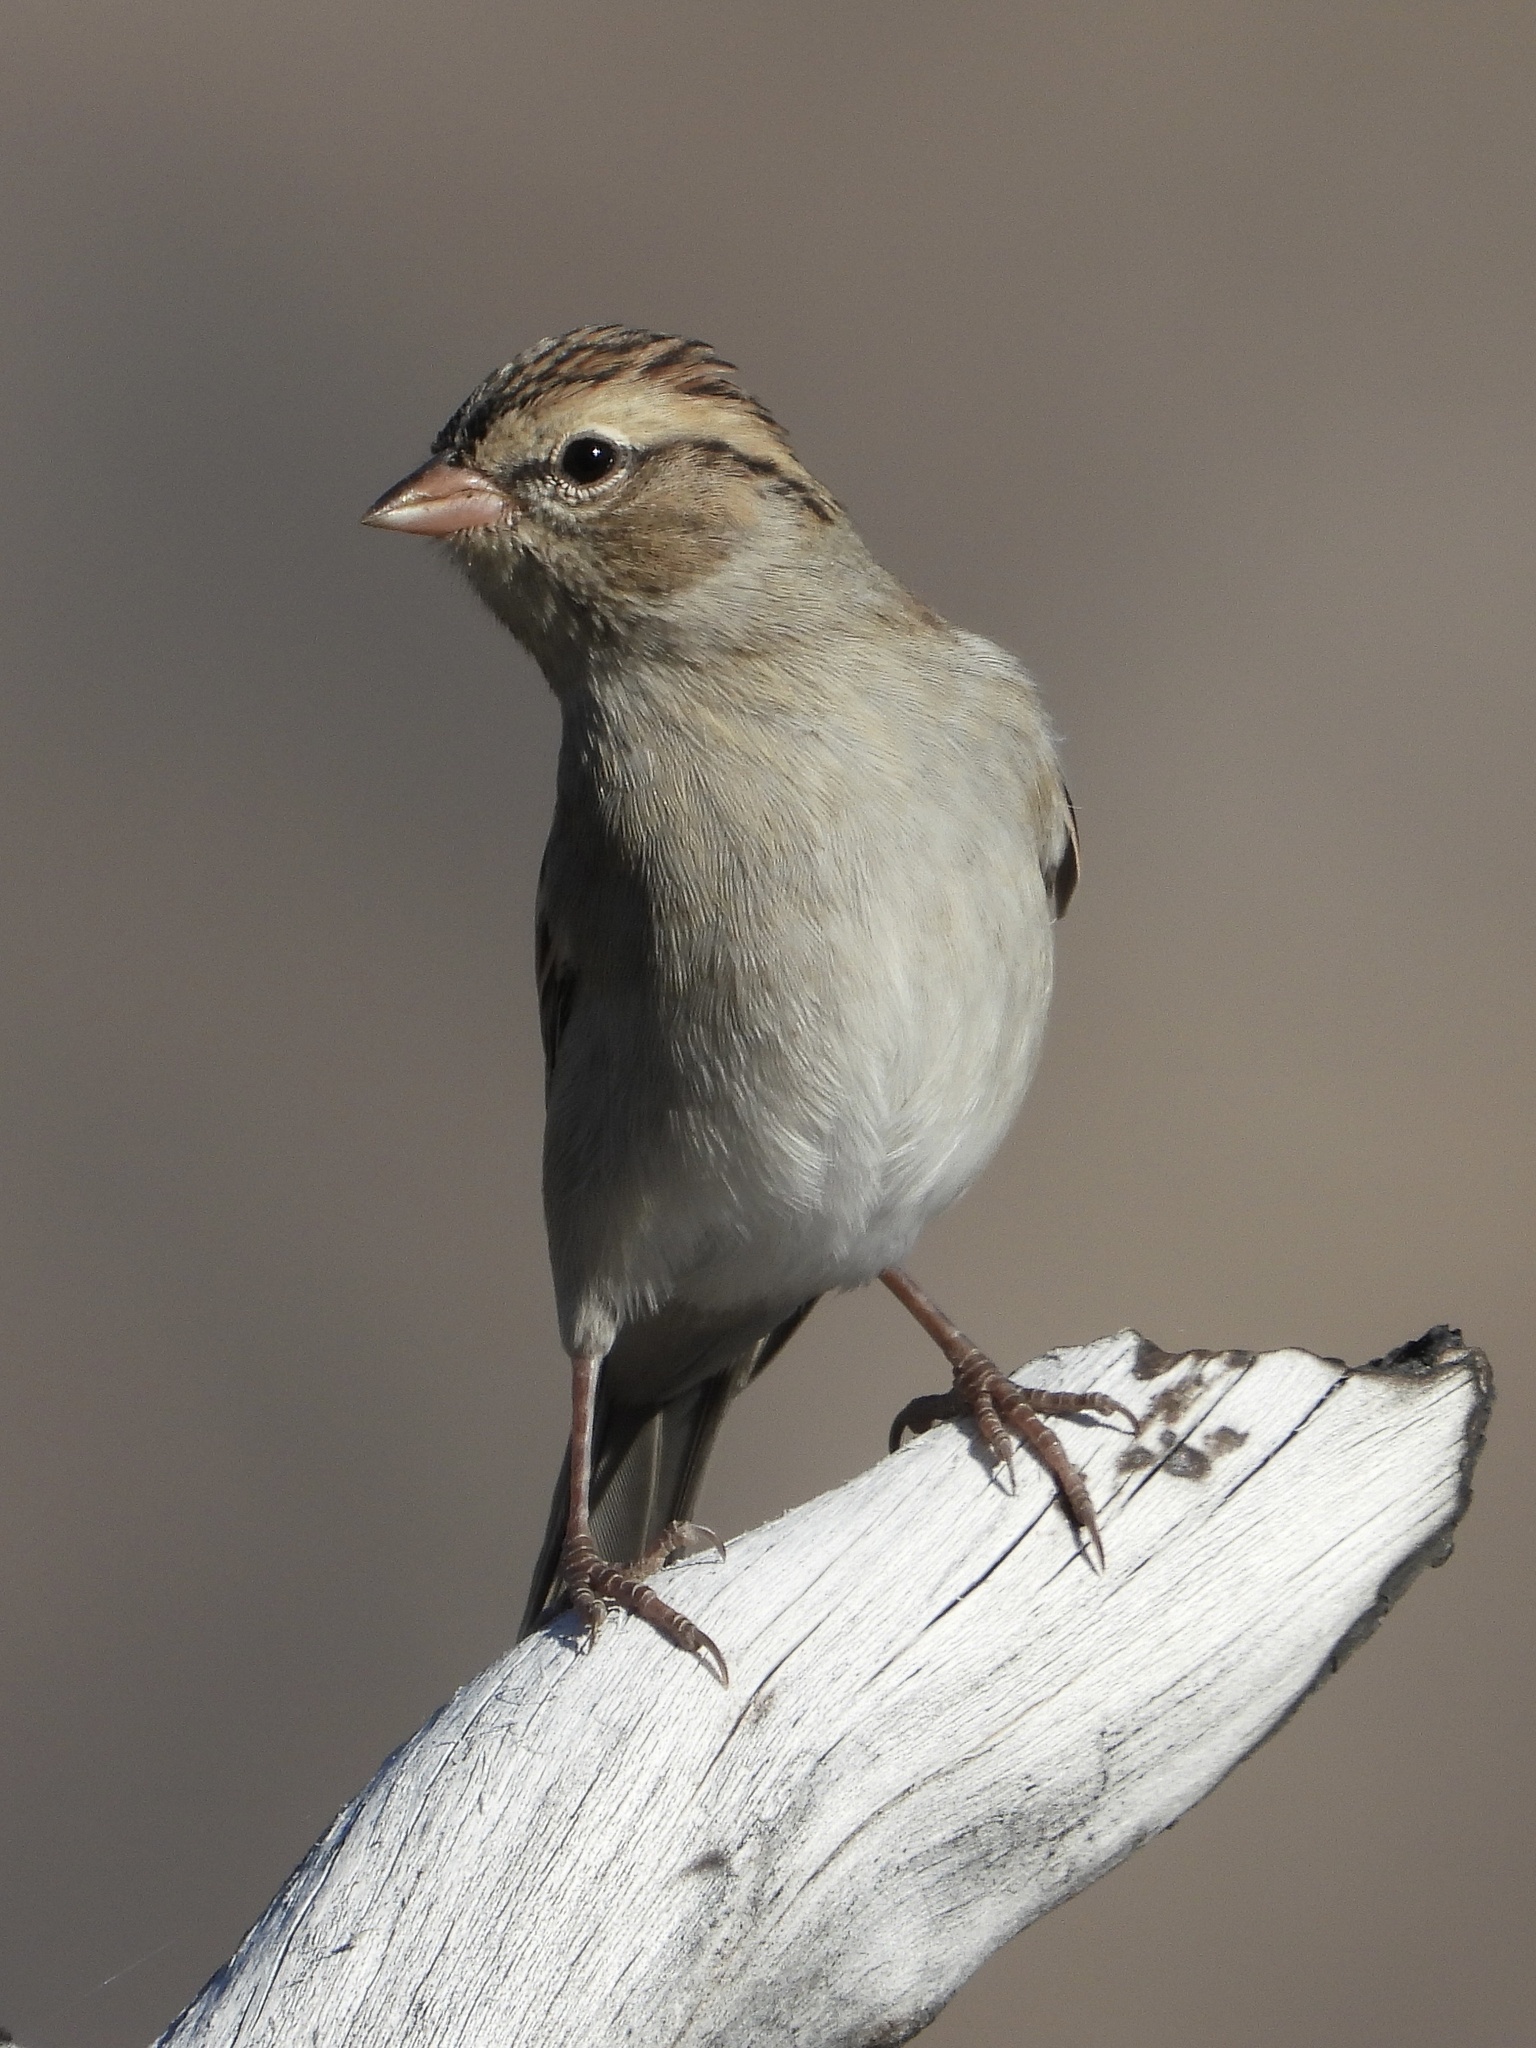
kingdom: Animalia
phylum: Chordata
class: Aves
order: Passeriformes
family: Passerellidae
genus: Spizella
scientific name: Spizella passerina
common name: Chipping sparrow
